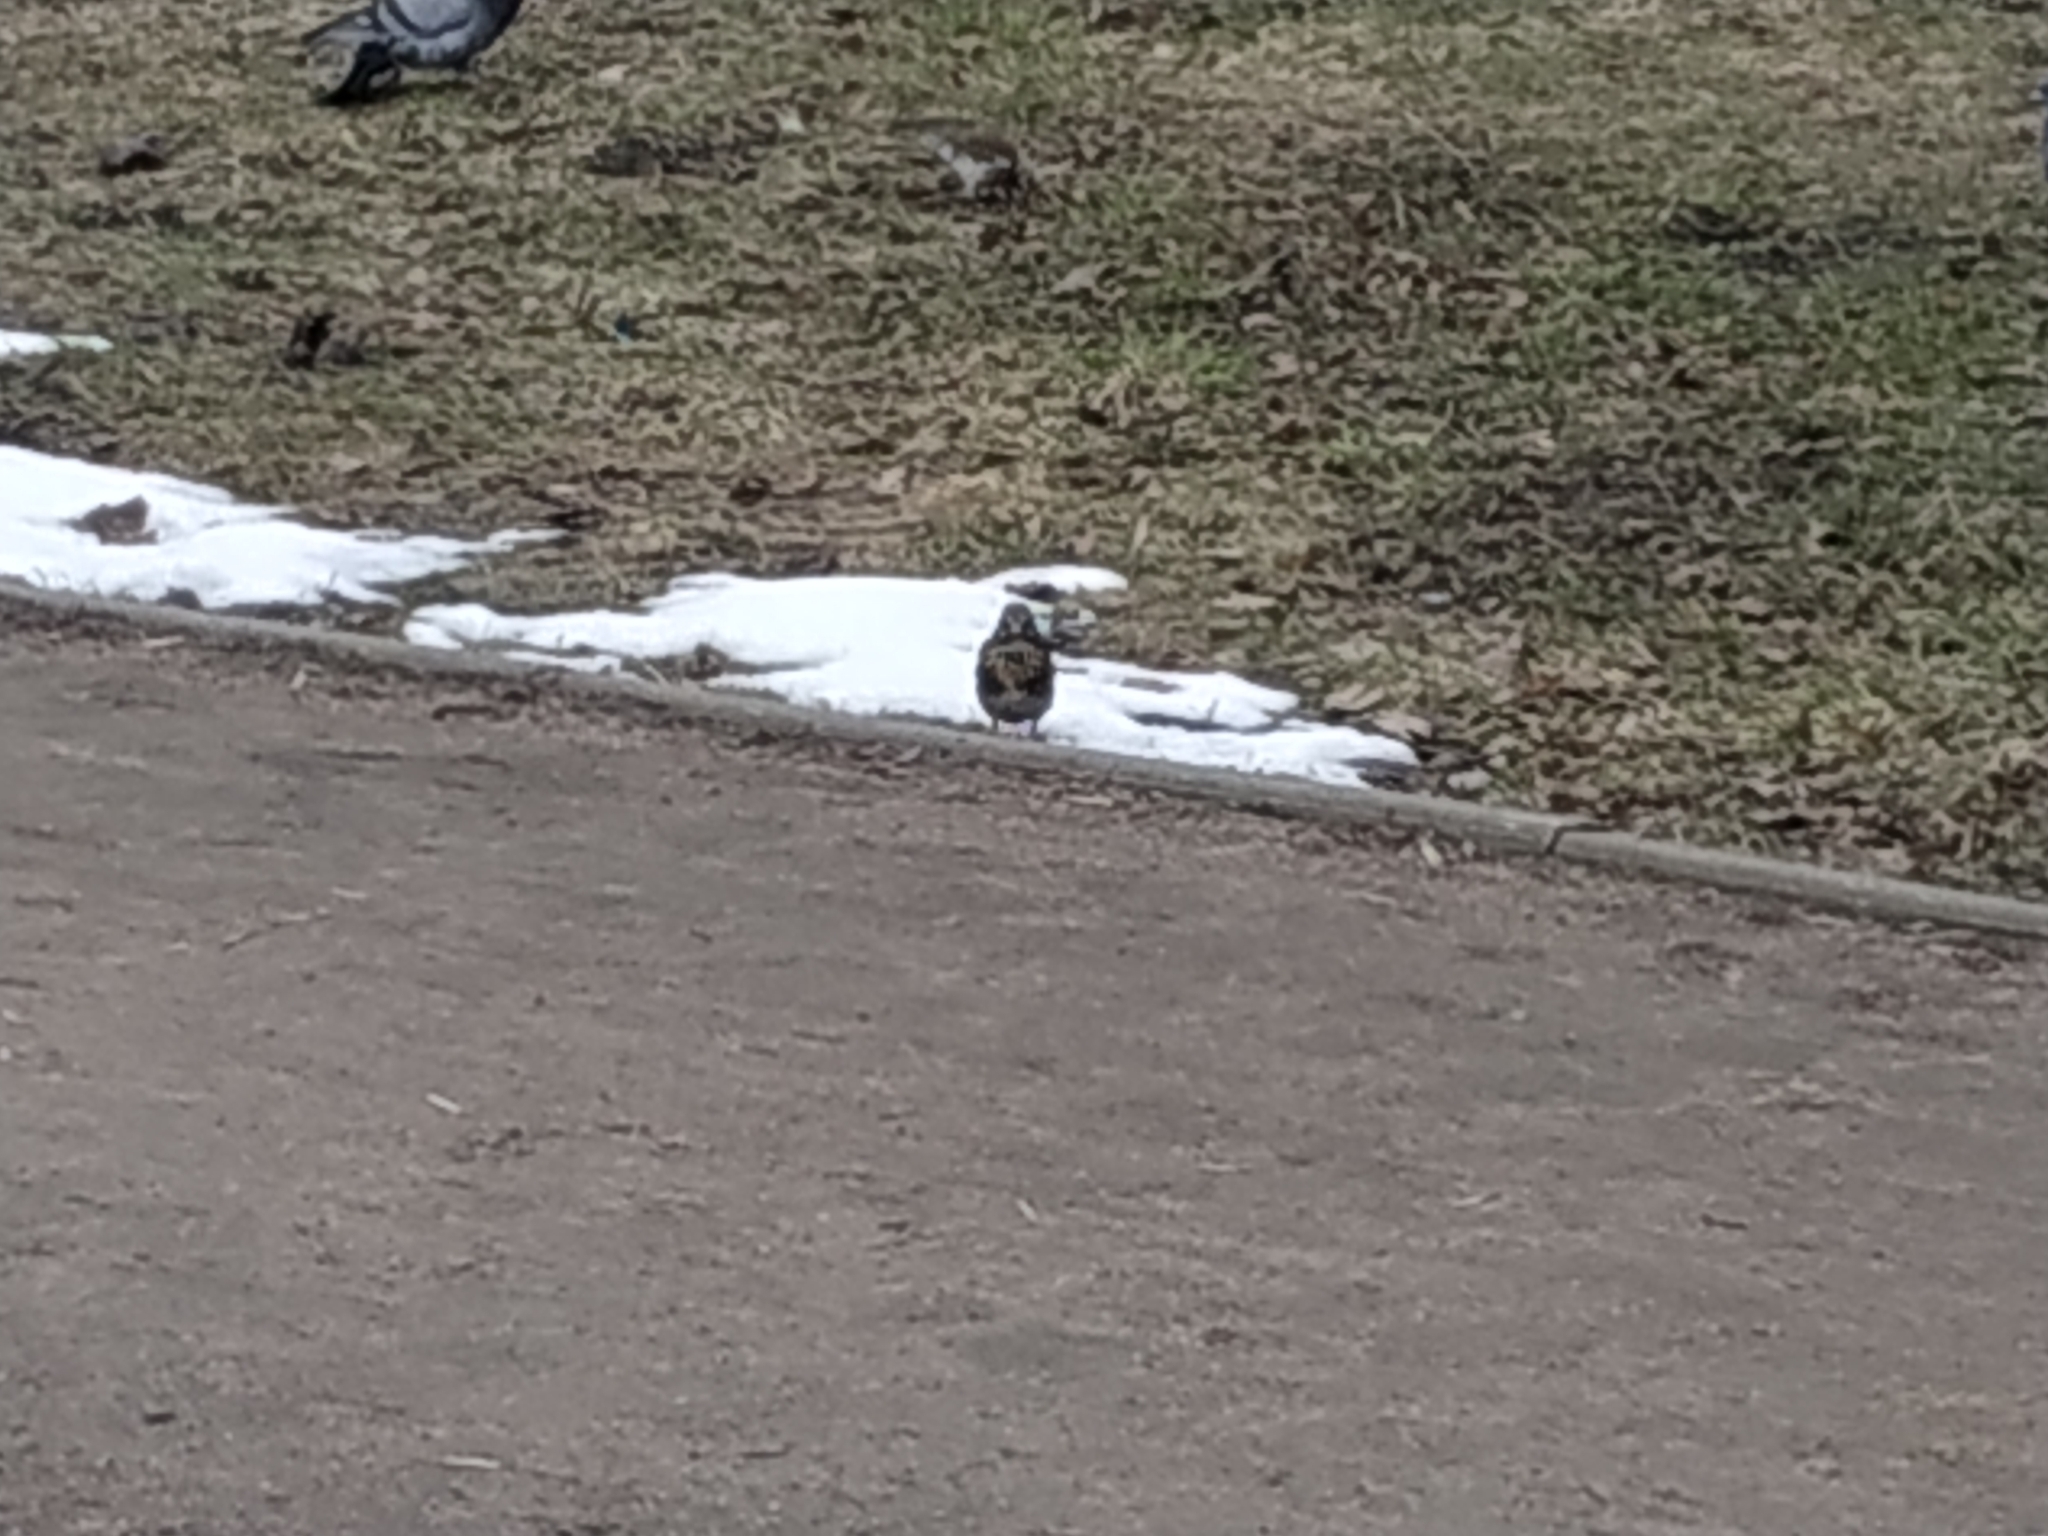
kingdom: Animalia
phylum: Chordata
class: Aves
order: Passeriformes
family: Turdidae
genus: Turdus
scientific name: Turdus pilaris
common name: Fieldfare
